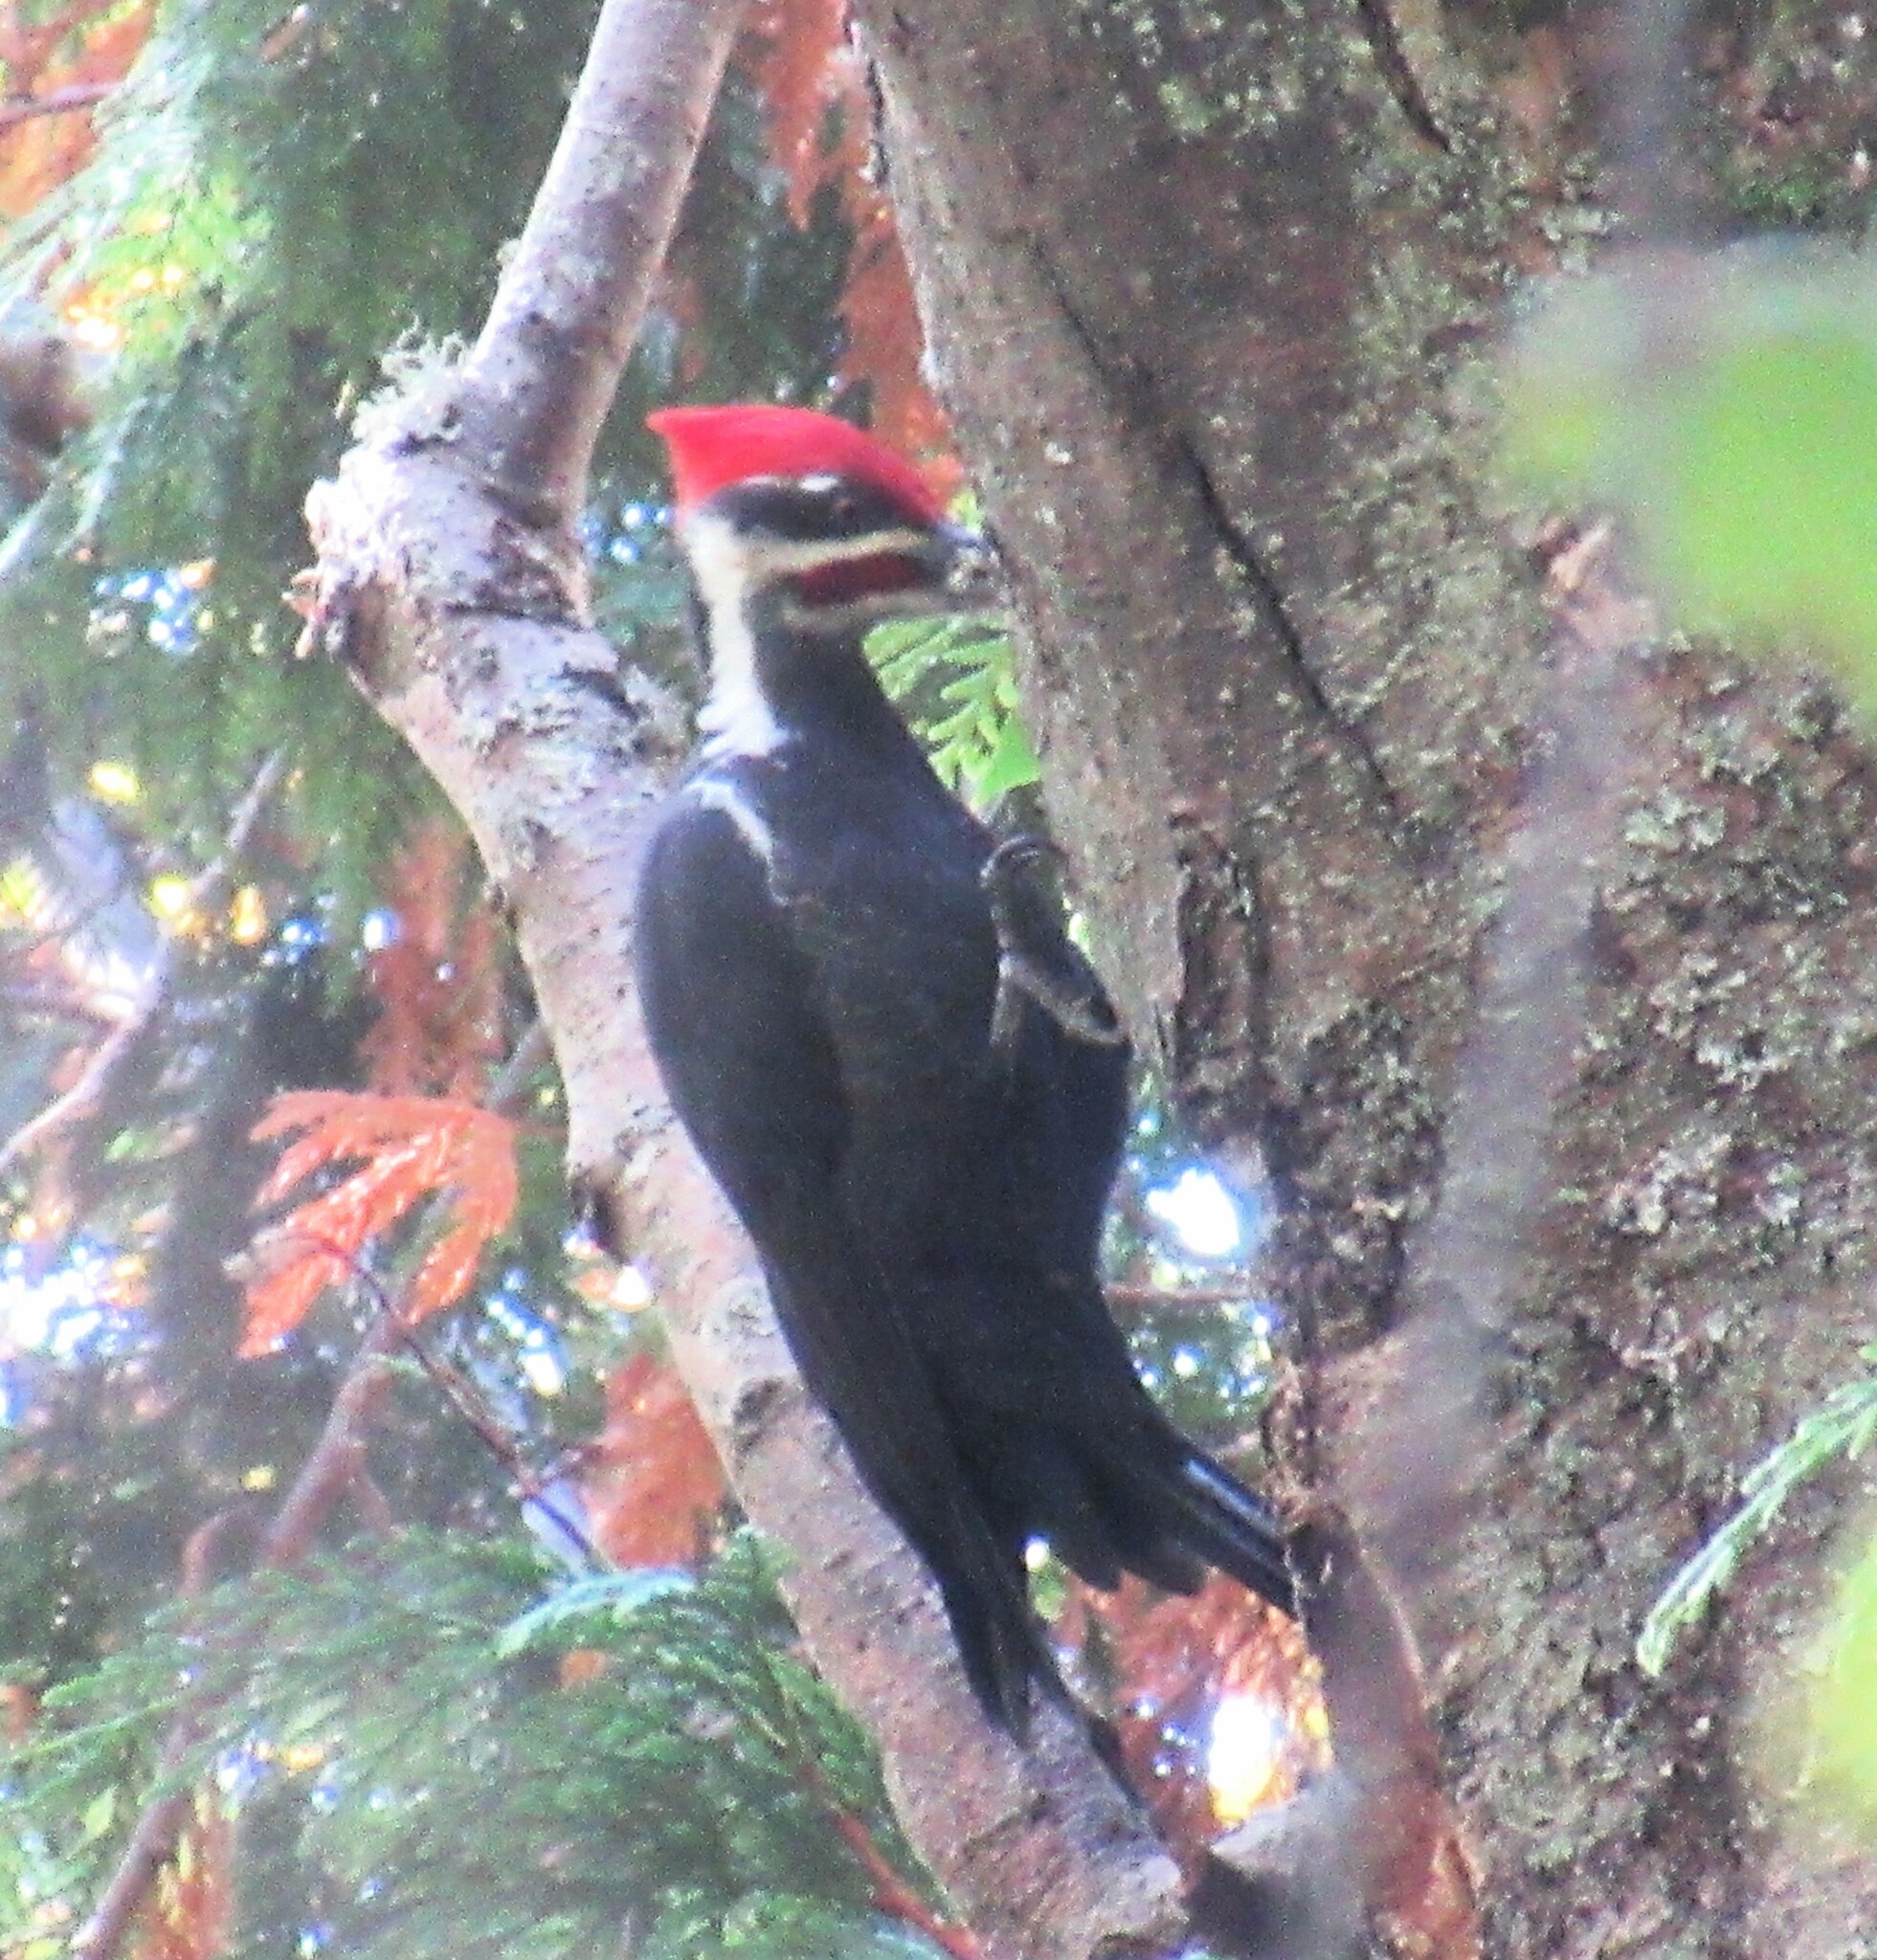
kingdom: Animalia
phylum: Chordata
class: Aves
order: Piciformes
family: Picidae
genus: Dryocopus
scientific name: Dryocopus pileatus
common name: Pileated woodpecker
